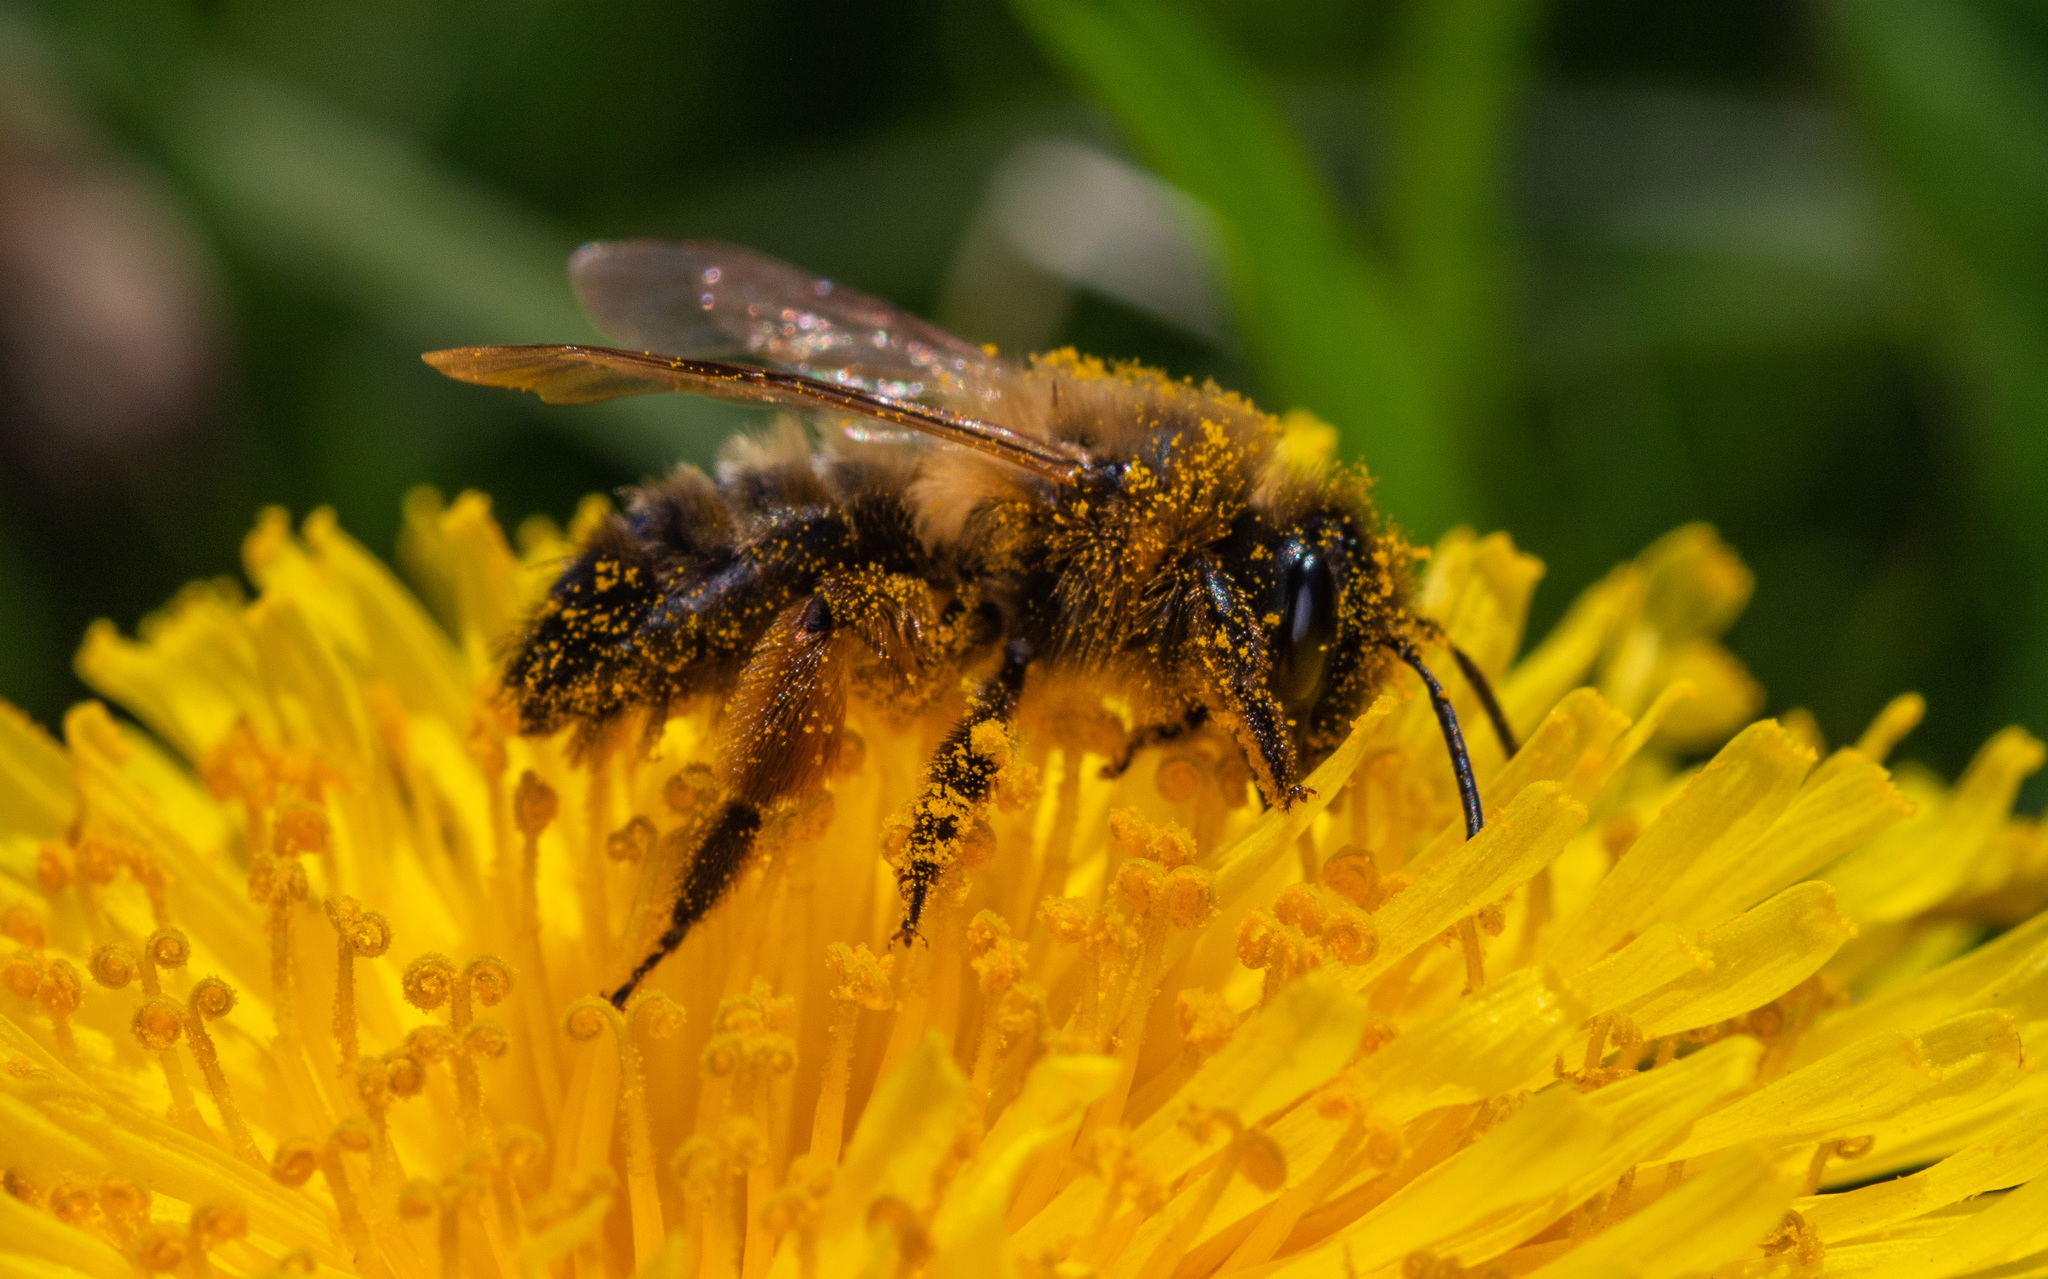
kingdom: Animalia
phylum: Arthropoda
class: Insecta
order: Hymenoptera
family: Andrenidae
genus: Andrena
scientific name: Andrena nigroaenea
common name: Buffish mining bee
